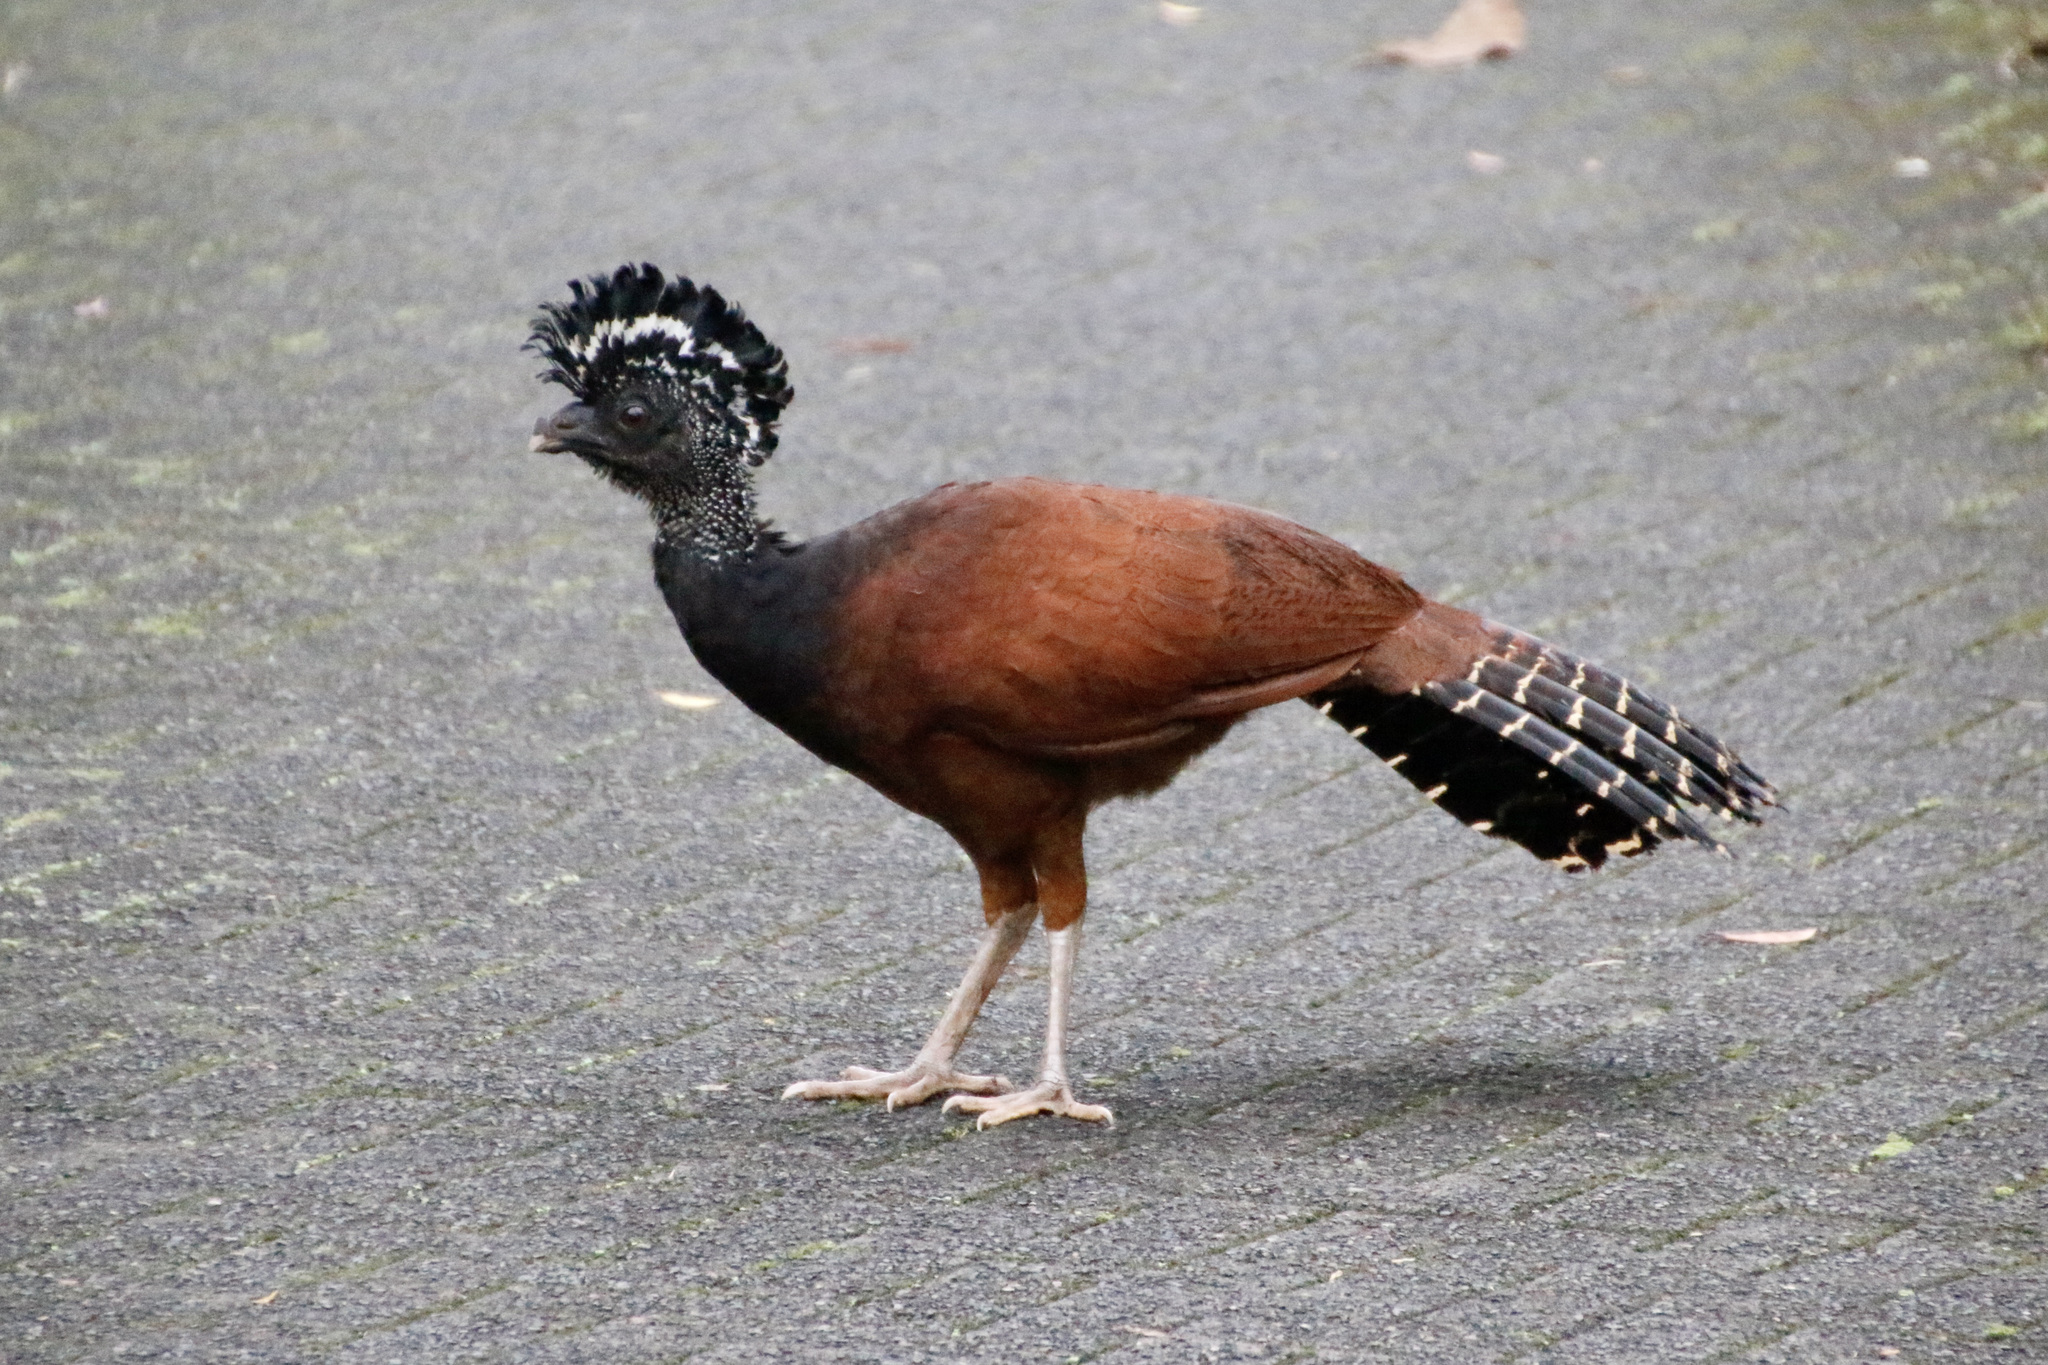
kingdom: Animalia
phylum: Chordata
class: Aves
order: Galliformes
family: Cracidae
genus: Crax
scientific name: Crax rubra
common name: Great curassow
